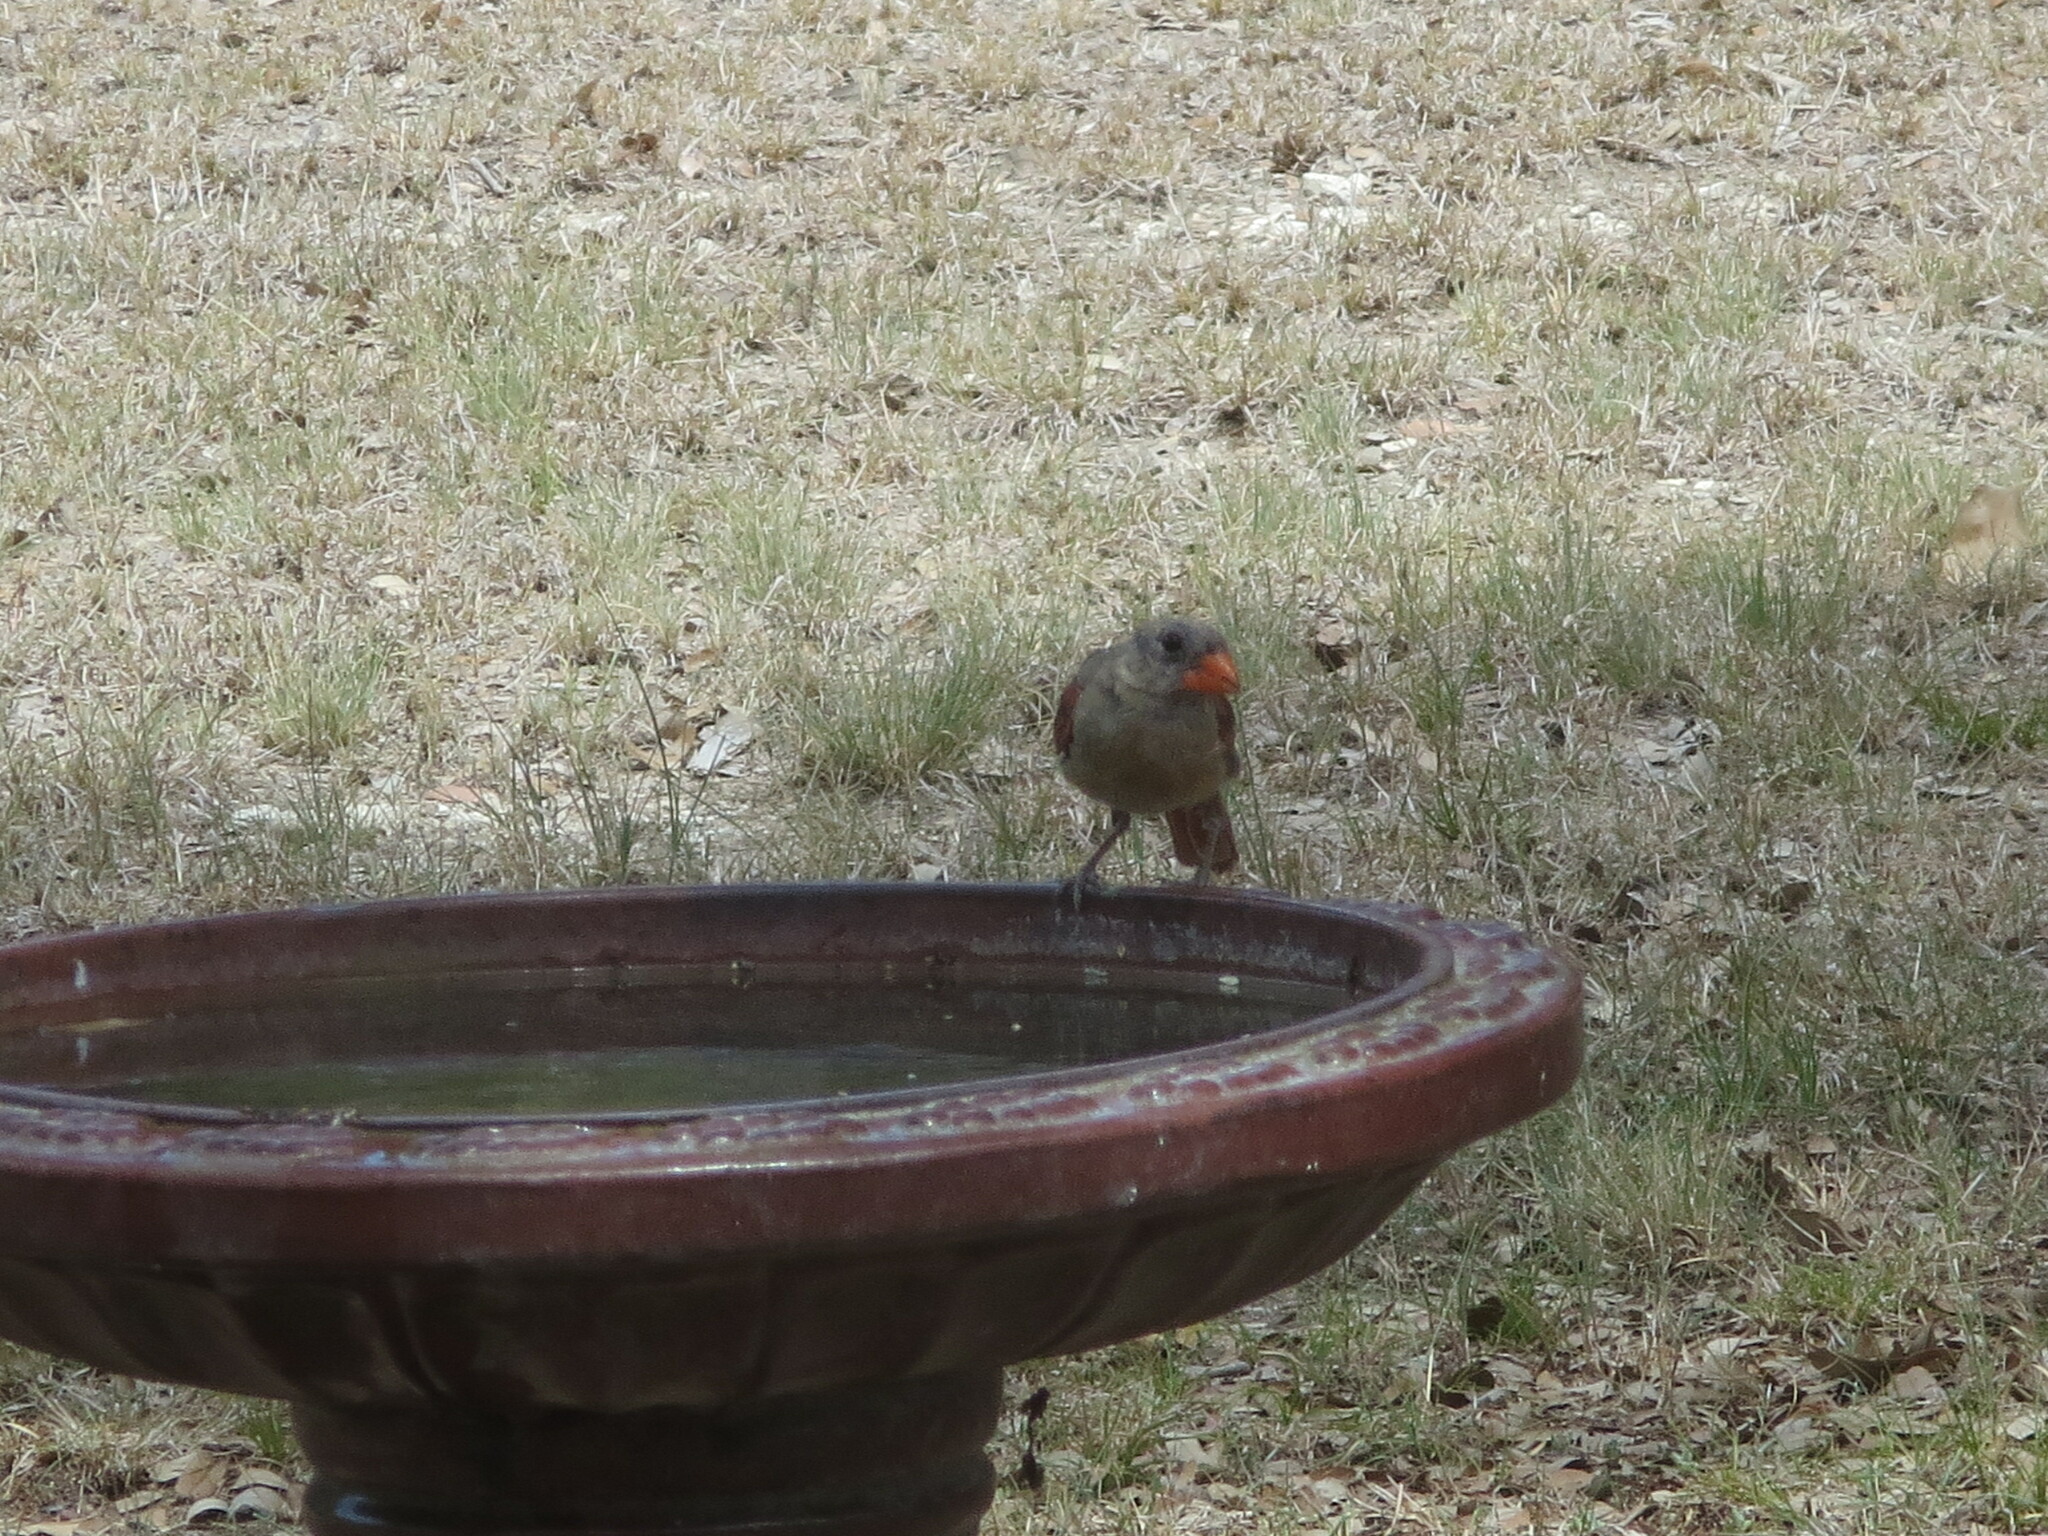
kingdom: Animalia
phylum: Chordata
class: Aves
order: Passeriformes
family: Cardinalidae
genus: Cardinalis
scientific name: Cardinalis cardinalis
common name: Northern cardinal
